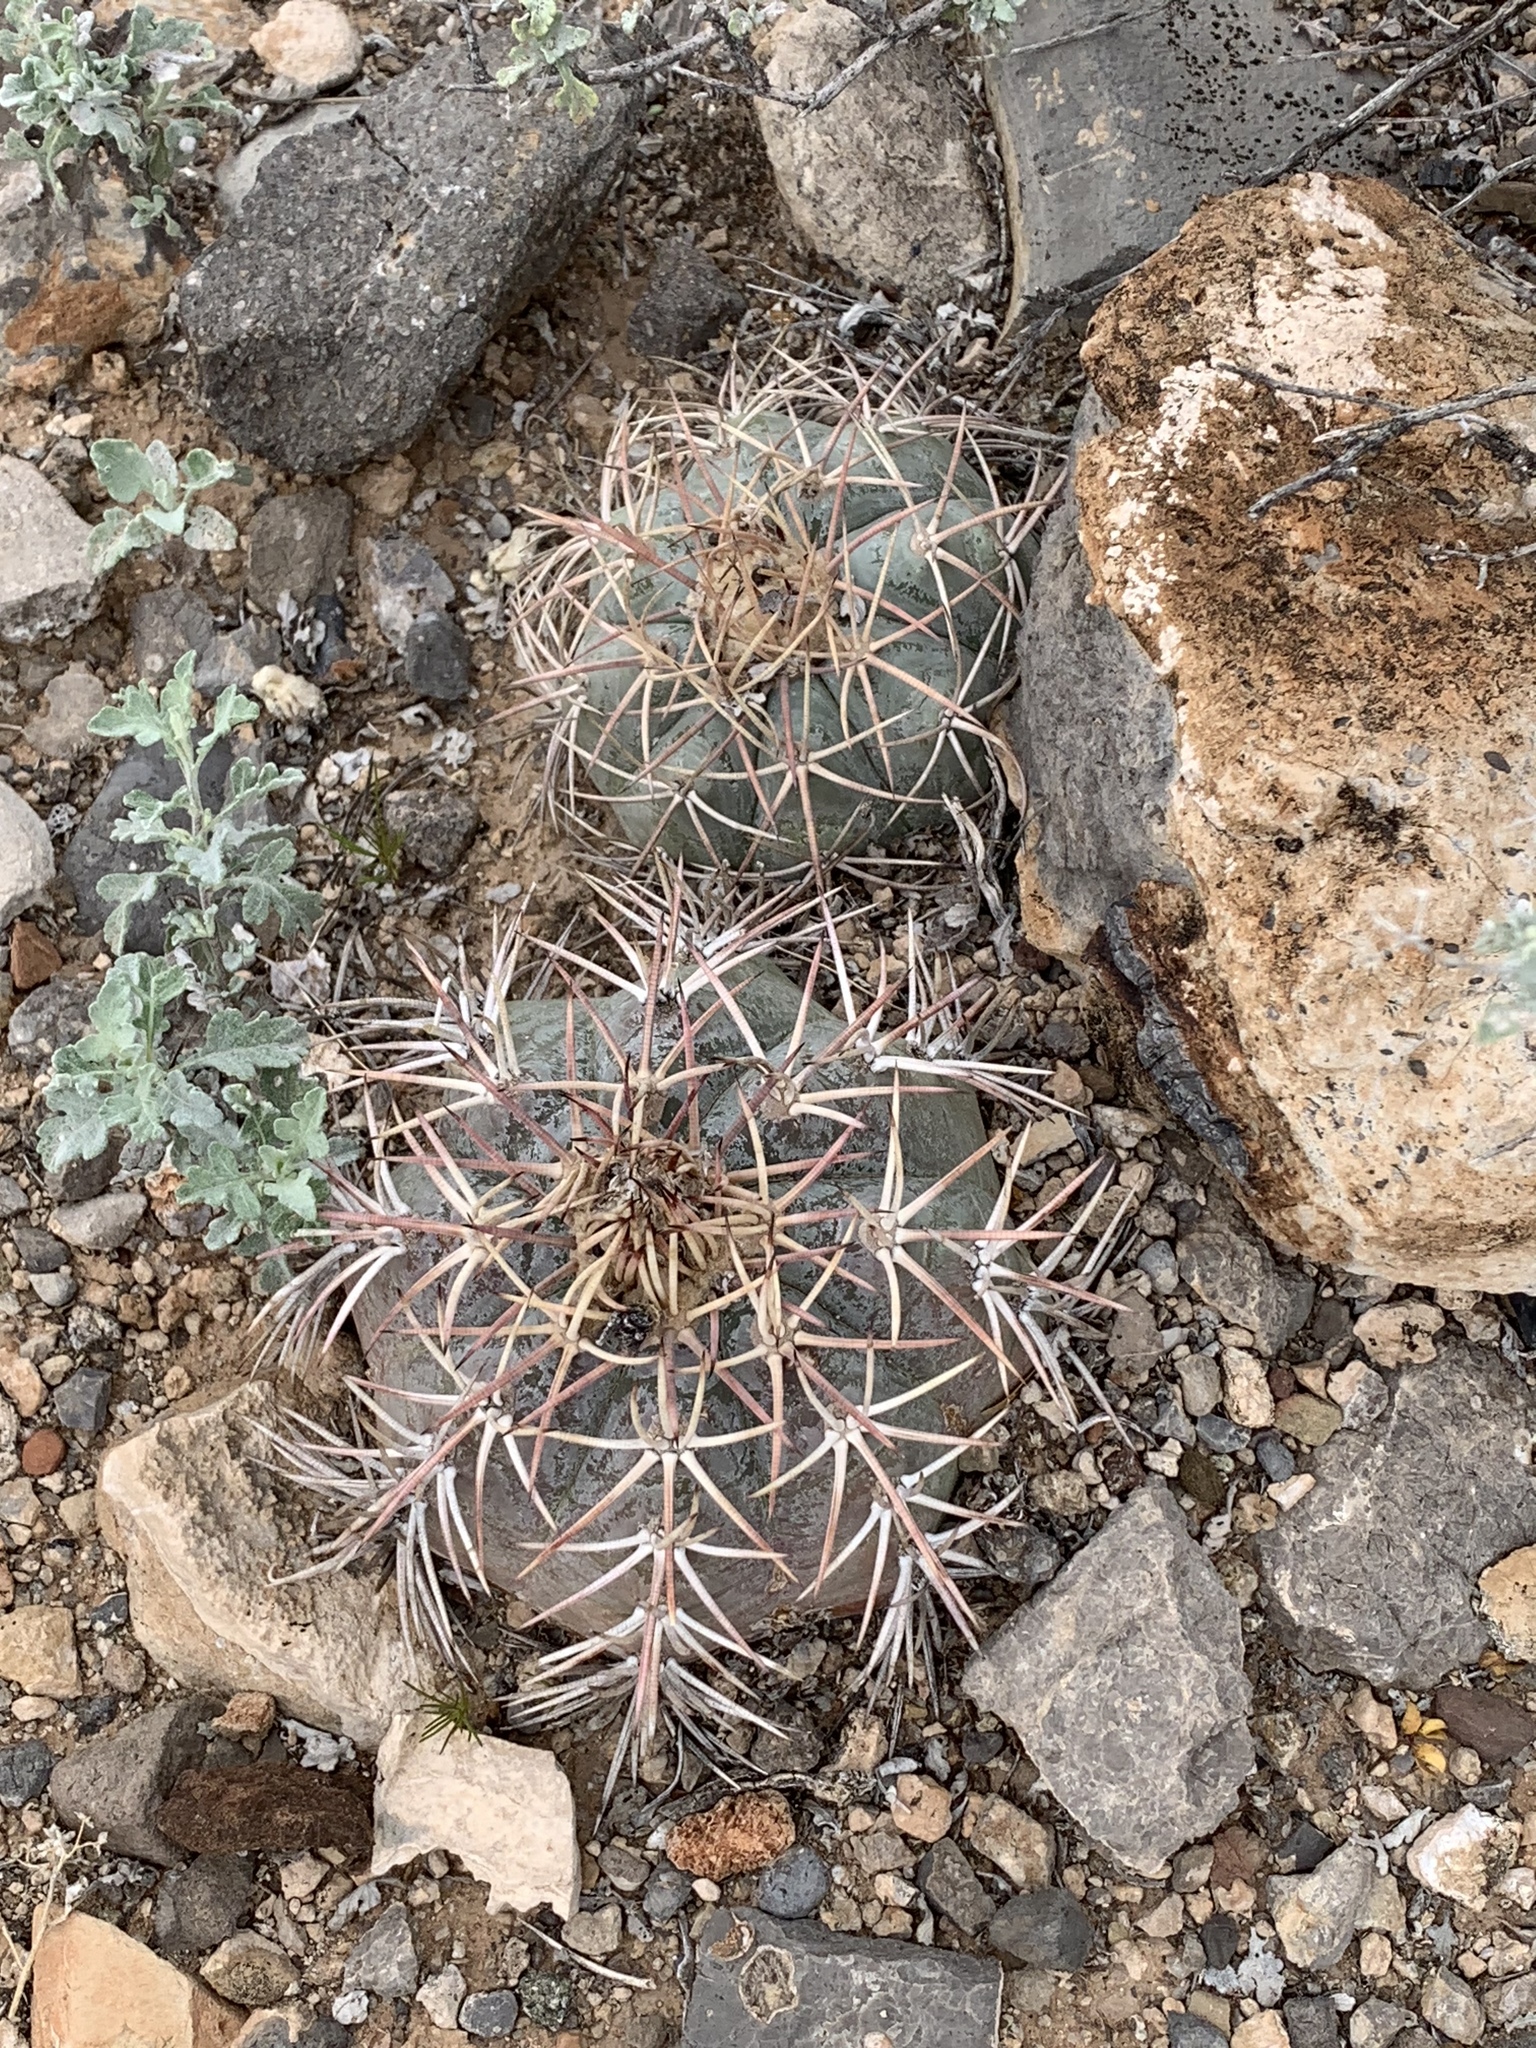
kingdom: Plantae
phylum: Tracheophyta
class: Magnoliopsida
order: Caryophyllales
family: Cactaceae
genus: Echinocactus
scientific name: Echinocactus horizonthalonius
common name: Devilshead
